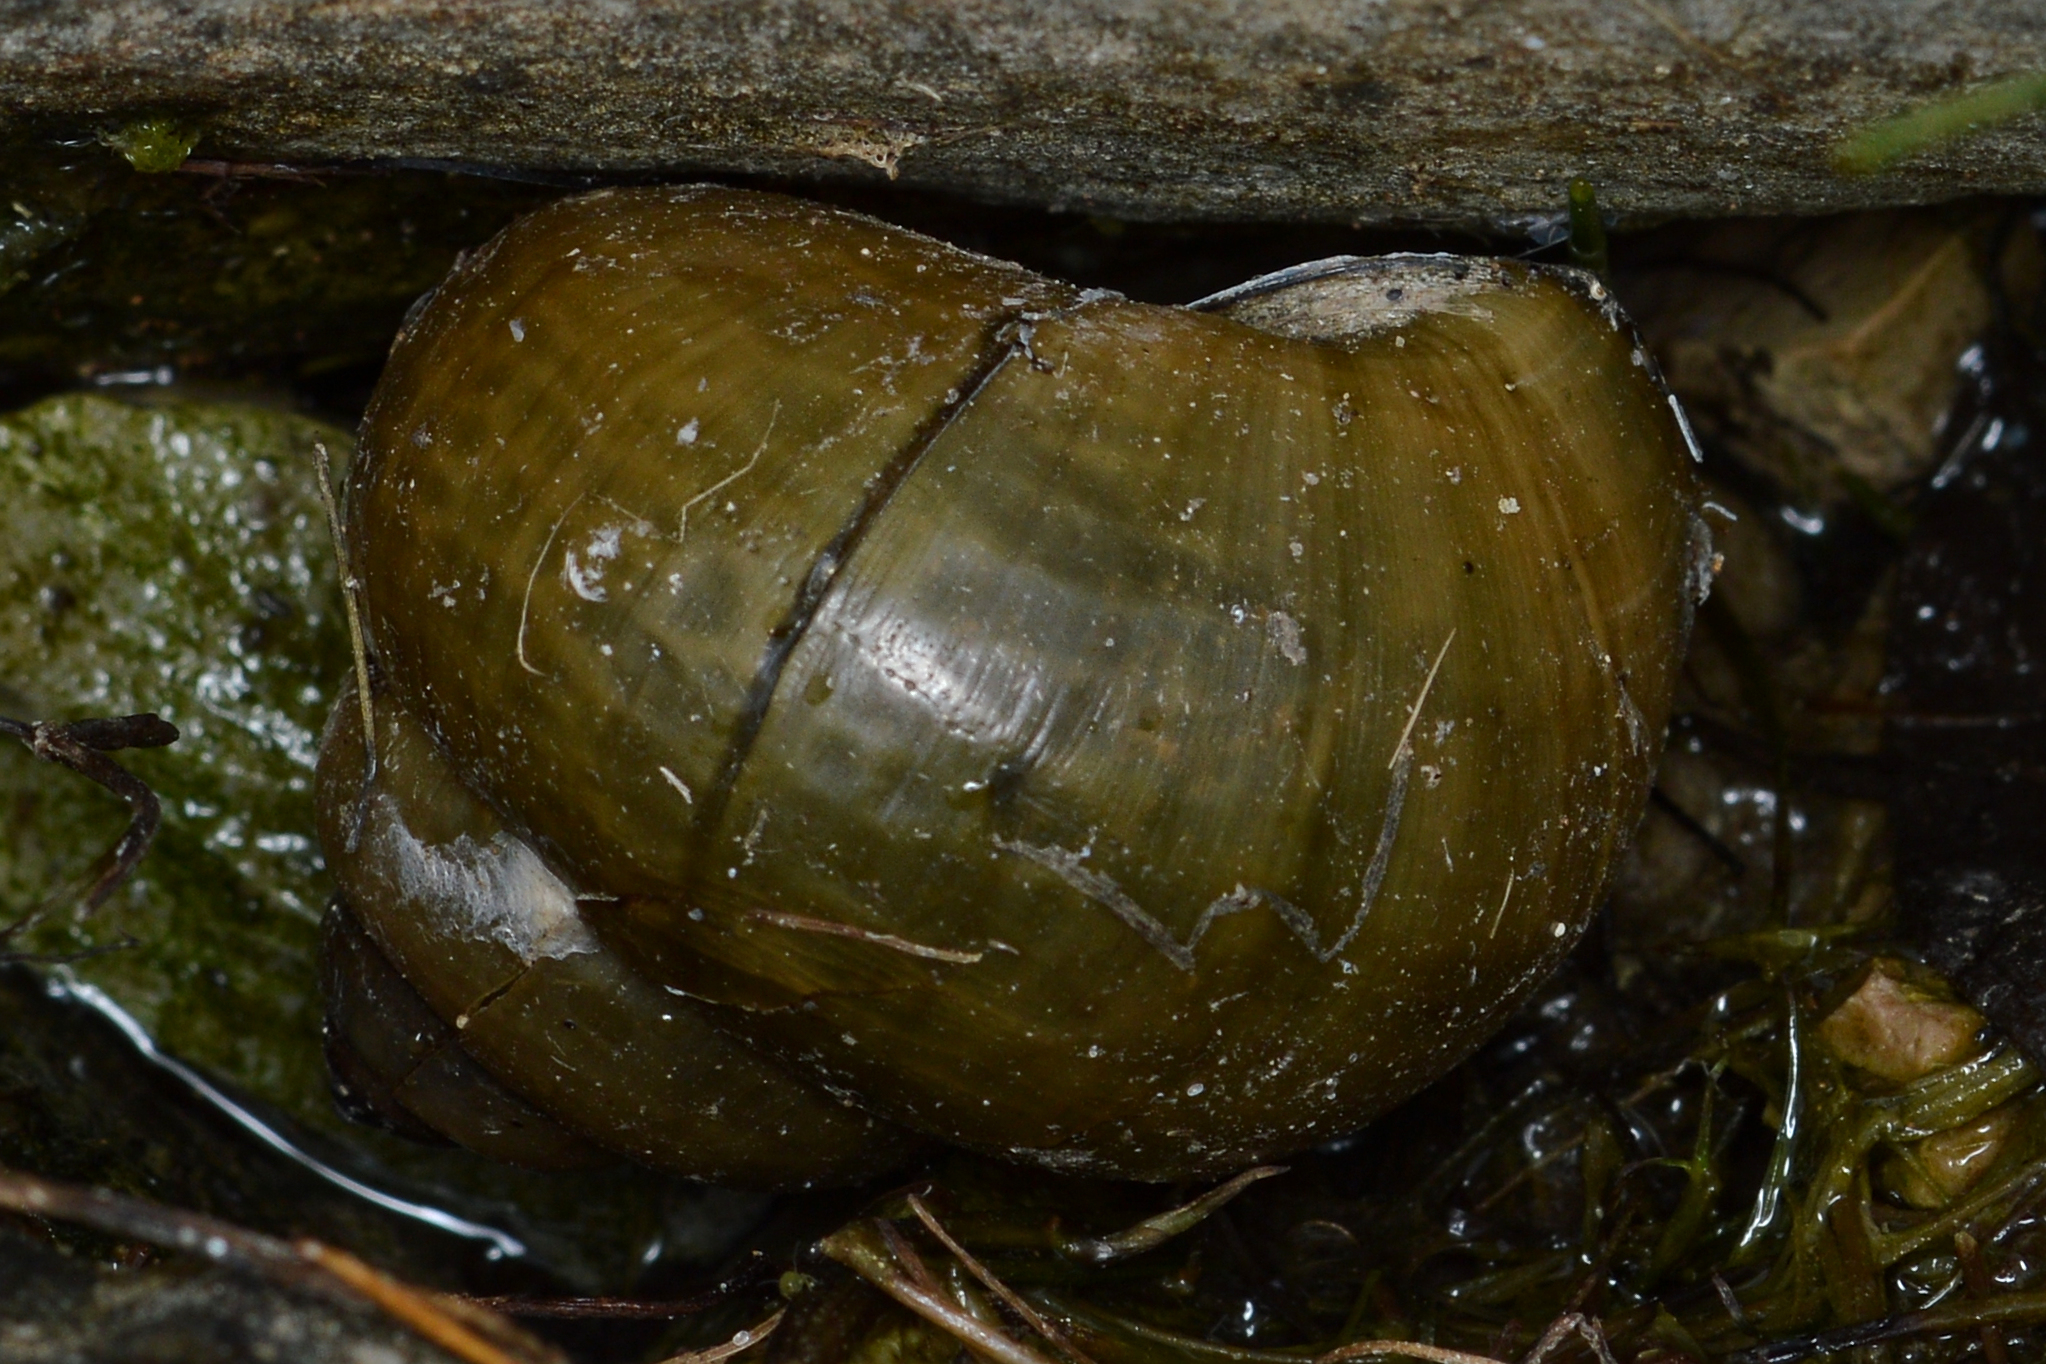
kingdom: Animalia
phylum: Mollusca
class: Gastropoda
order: Architaenioglossa
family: Viviparidae
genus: Cipangopaludina
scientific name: Cipangopaludina chinensis
